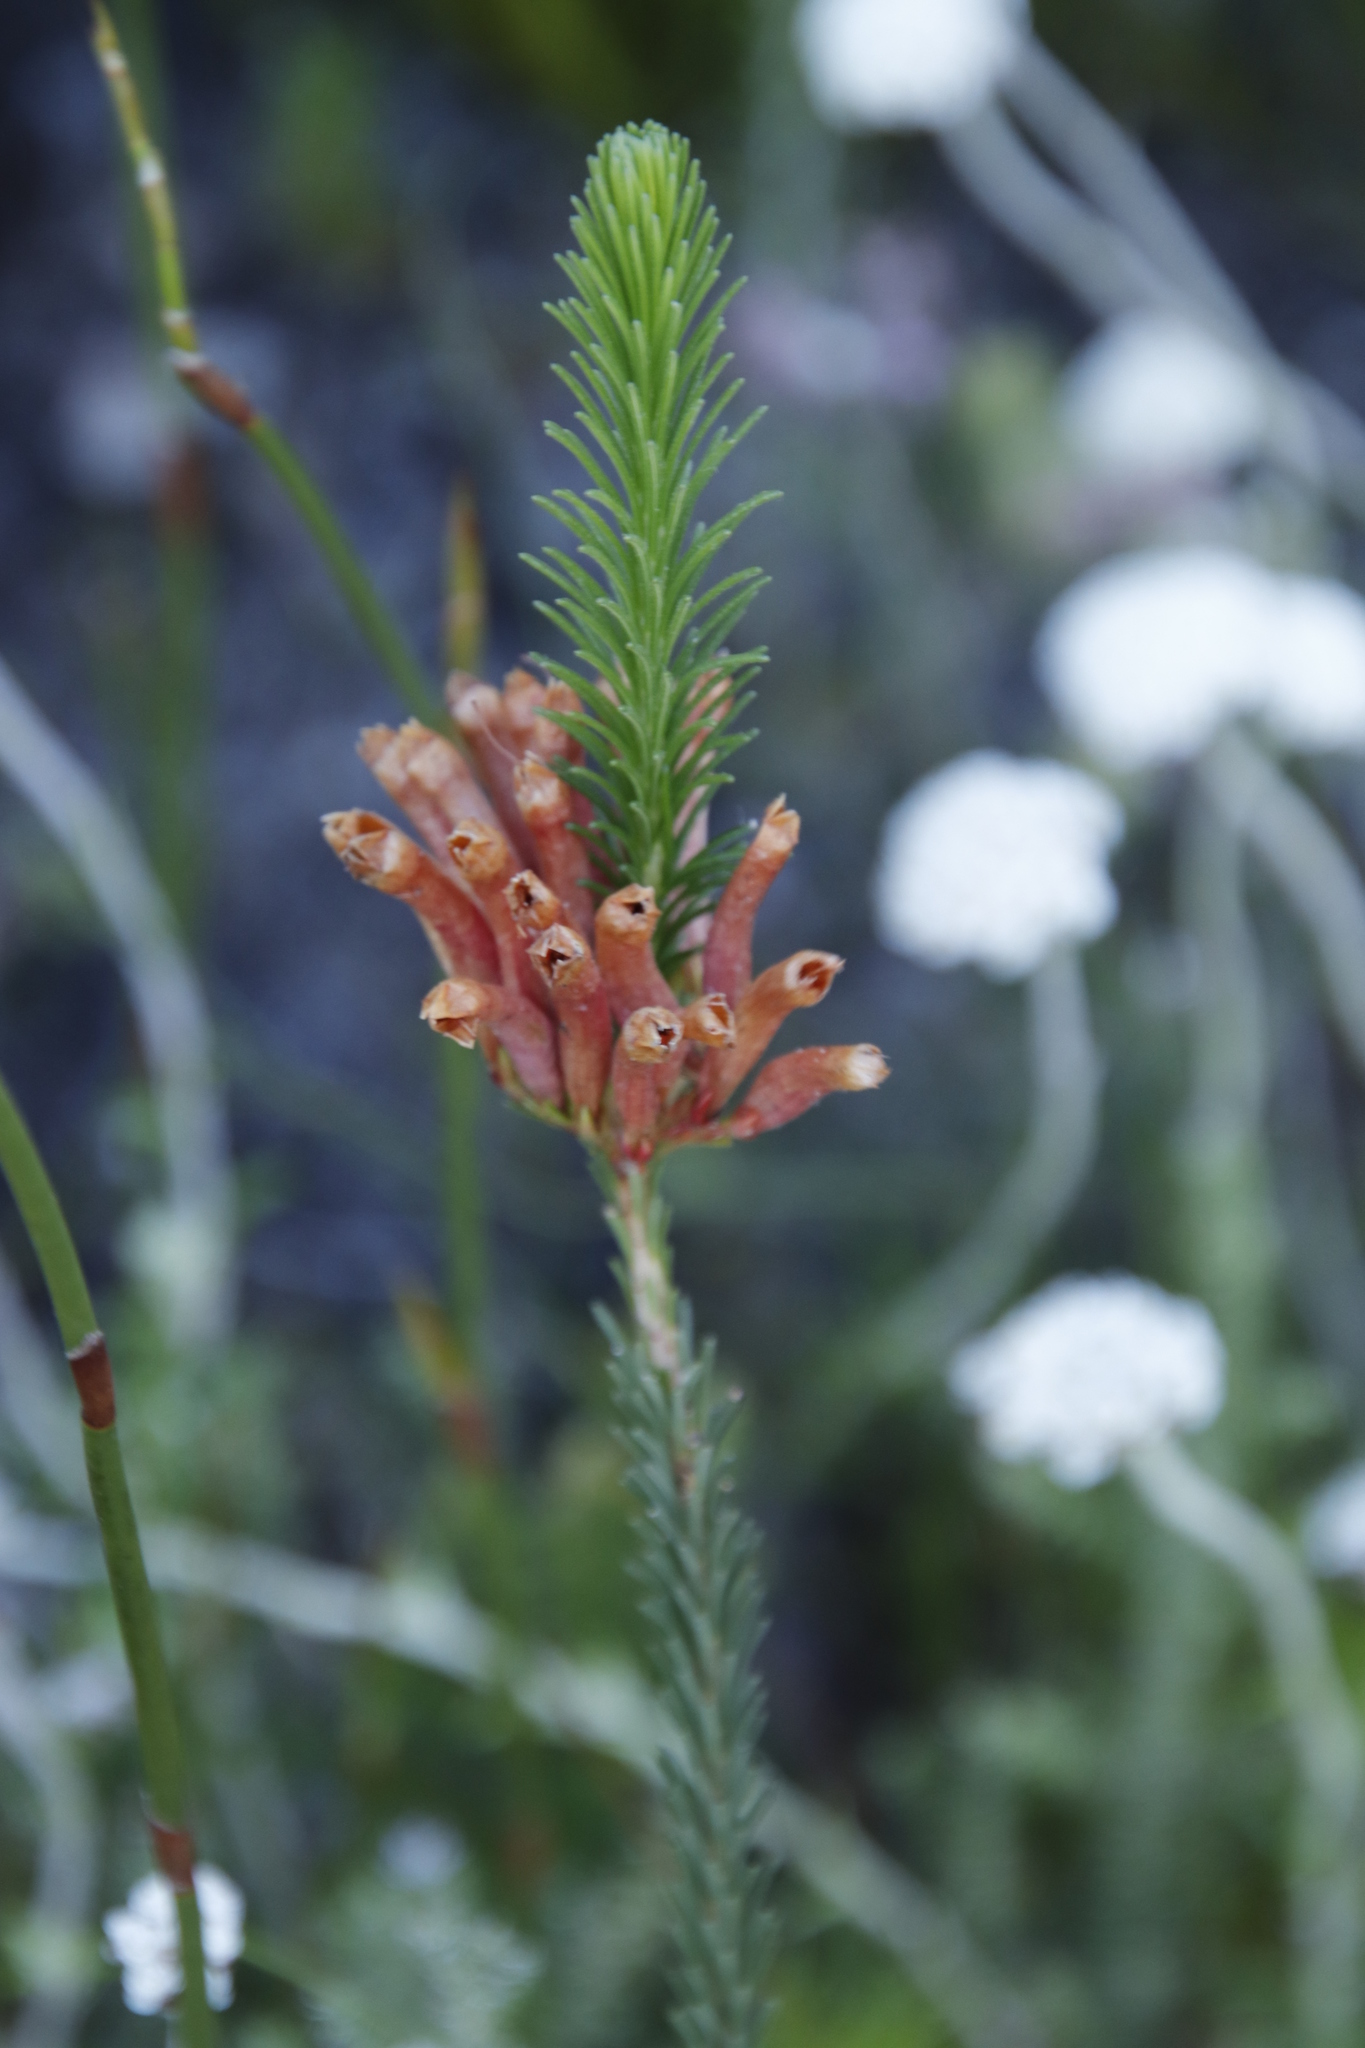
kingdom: Plantae
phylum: Tracheophyta
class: Magnoliopsida
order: Ericales
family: Ericaceae
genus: Erica
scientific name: Erica fascicularis
